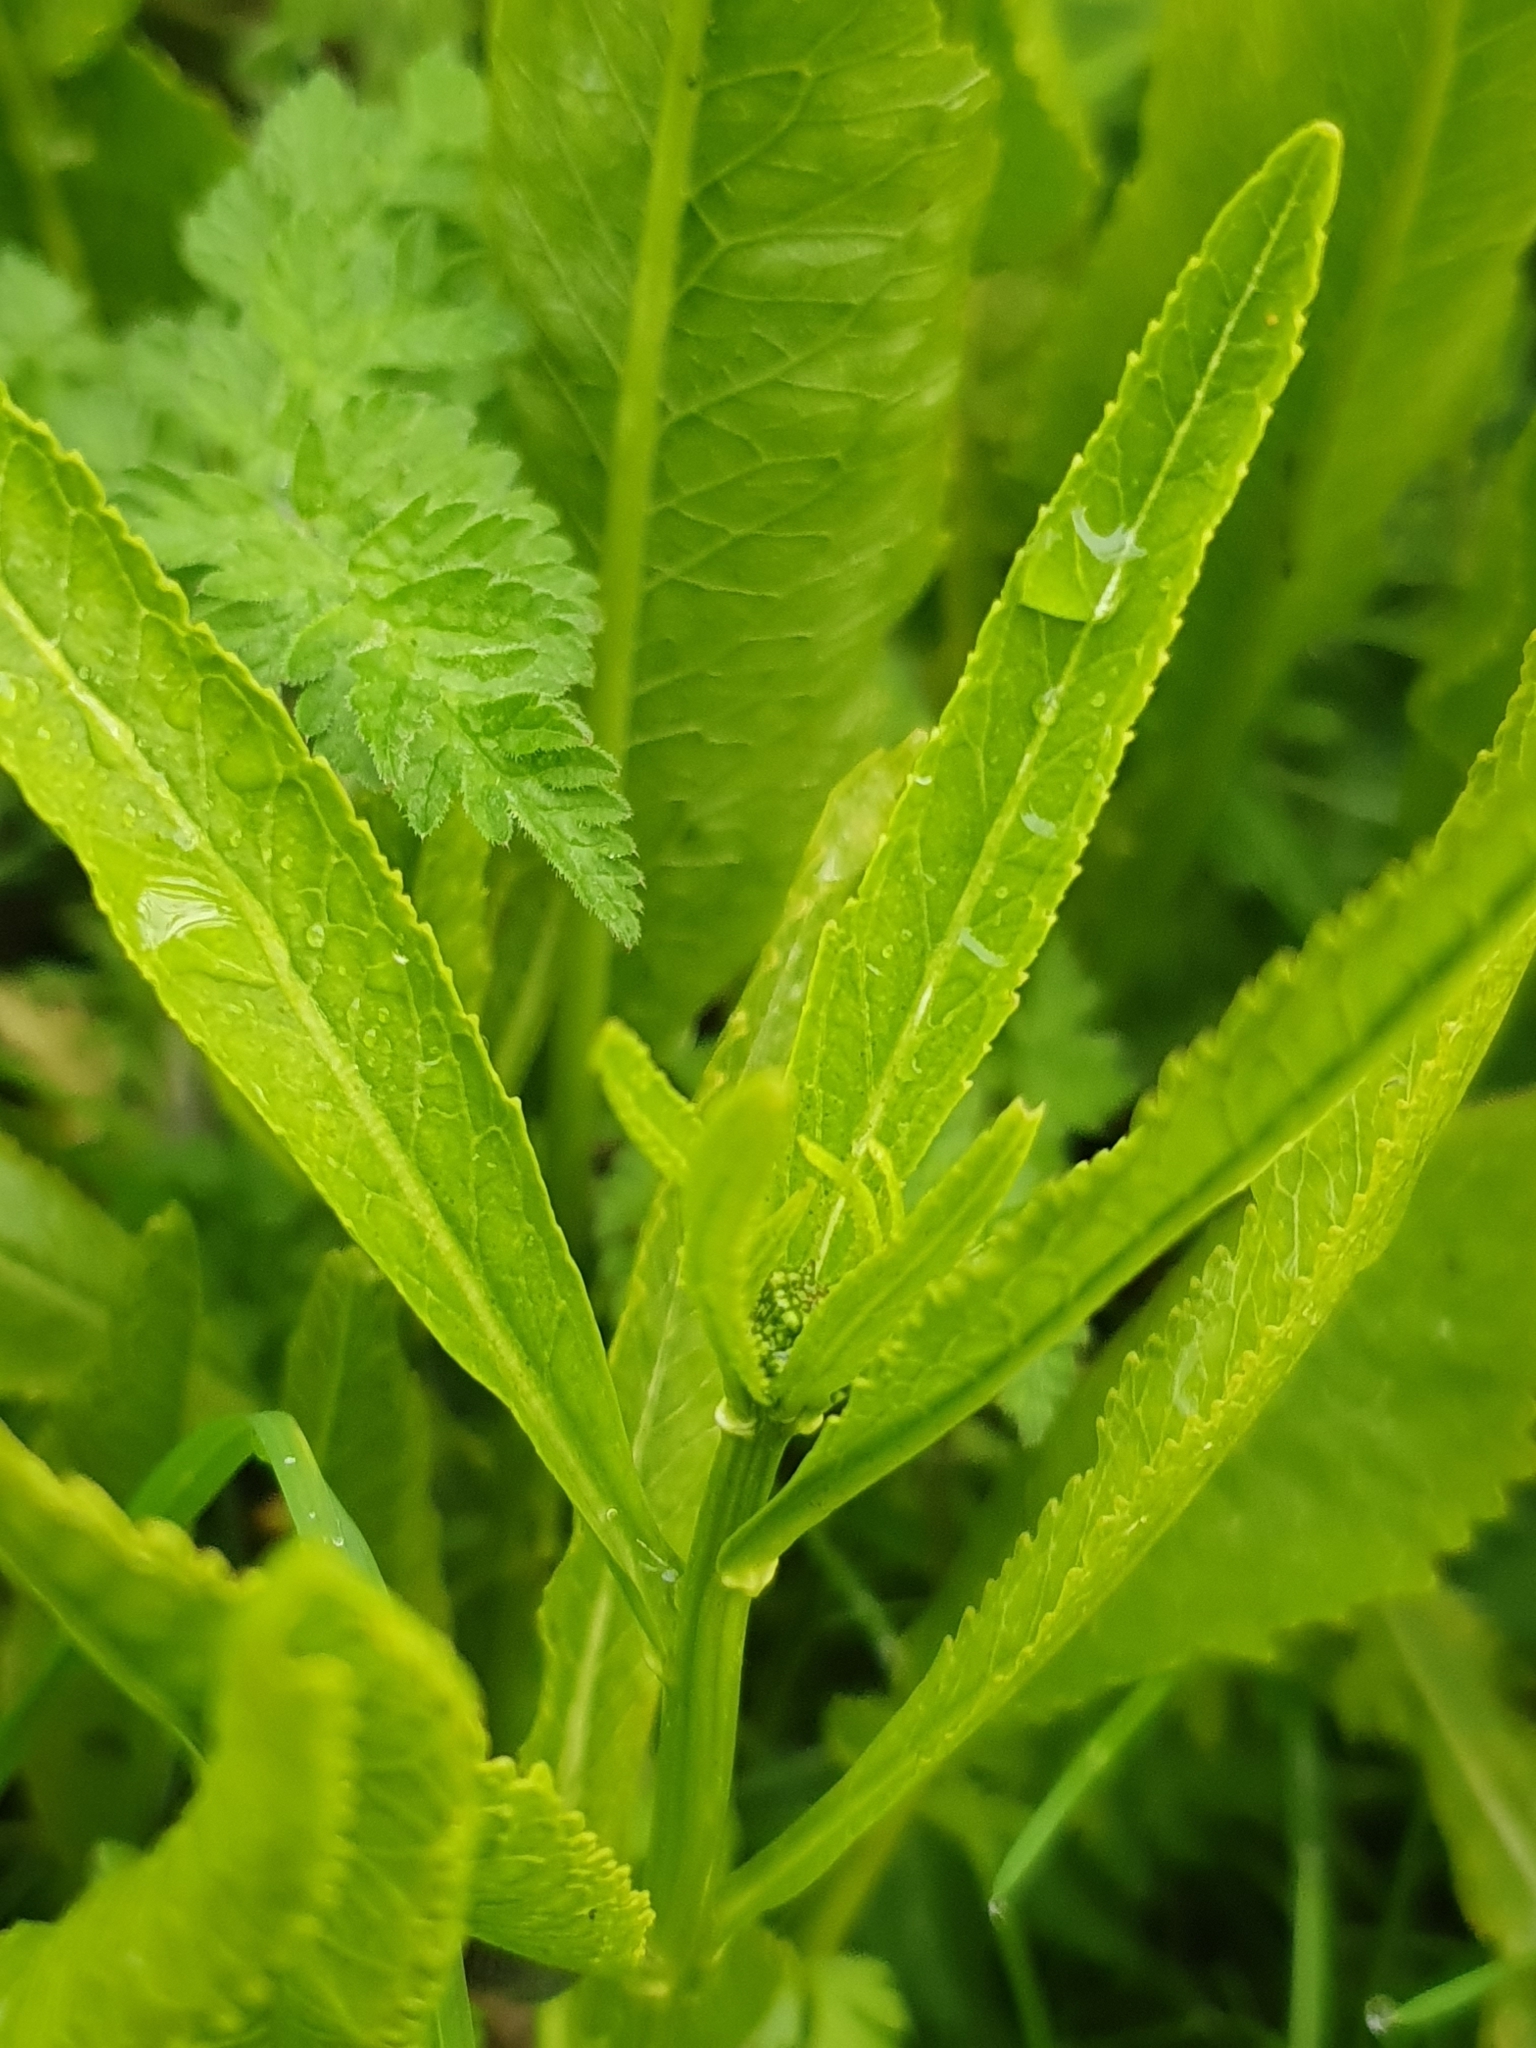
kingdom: Plantae
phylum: Tracheophyta
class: Magnoliopsida
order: Brassicales
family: Brassicaceae
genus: Armoracia
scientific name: Armoracia rusticana
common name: Horseradish
